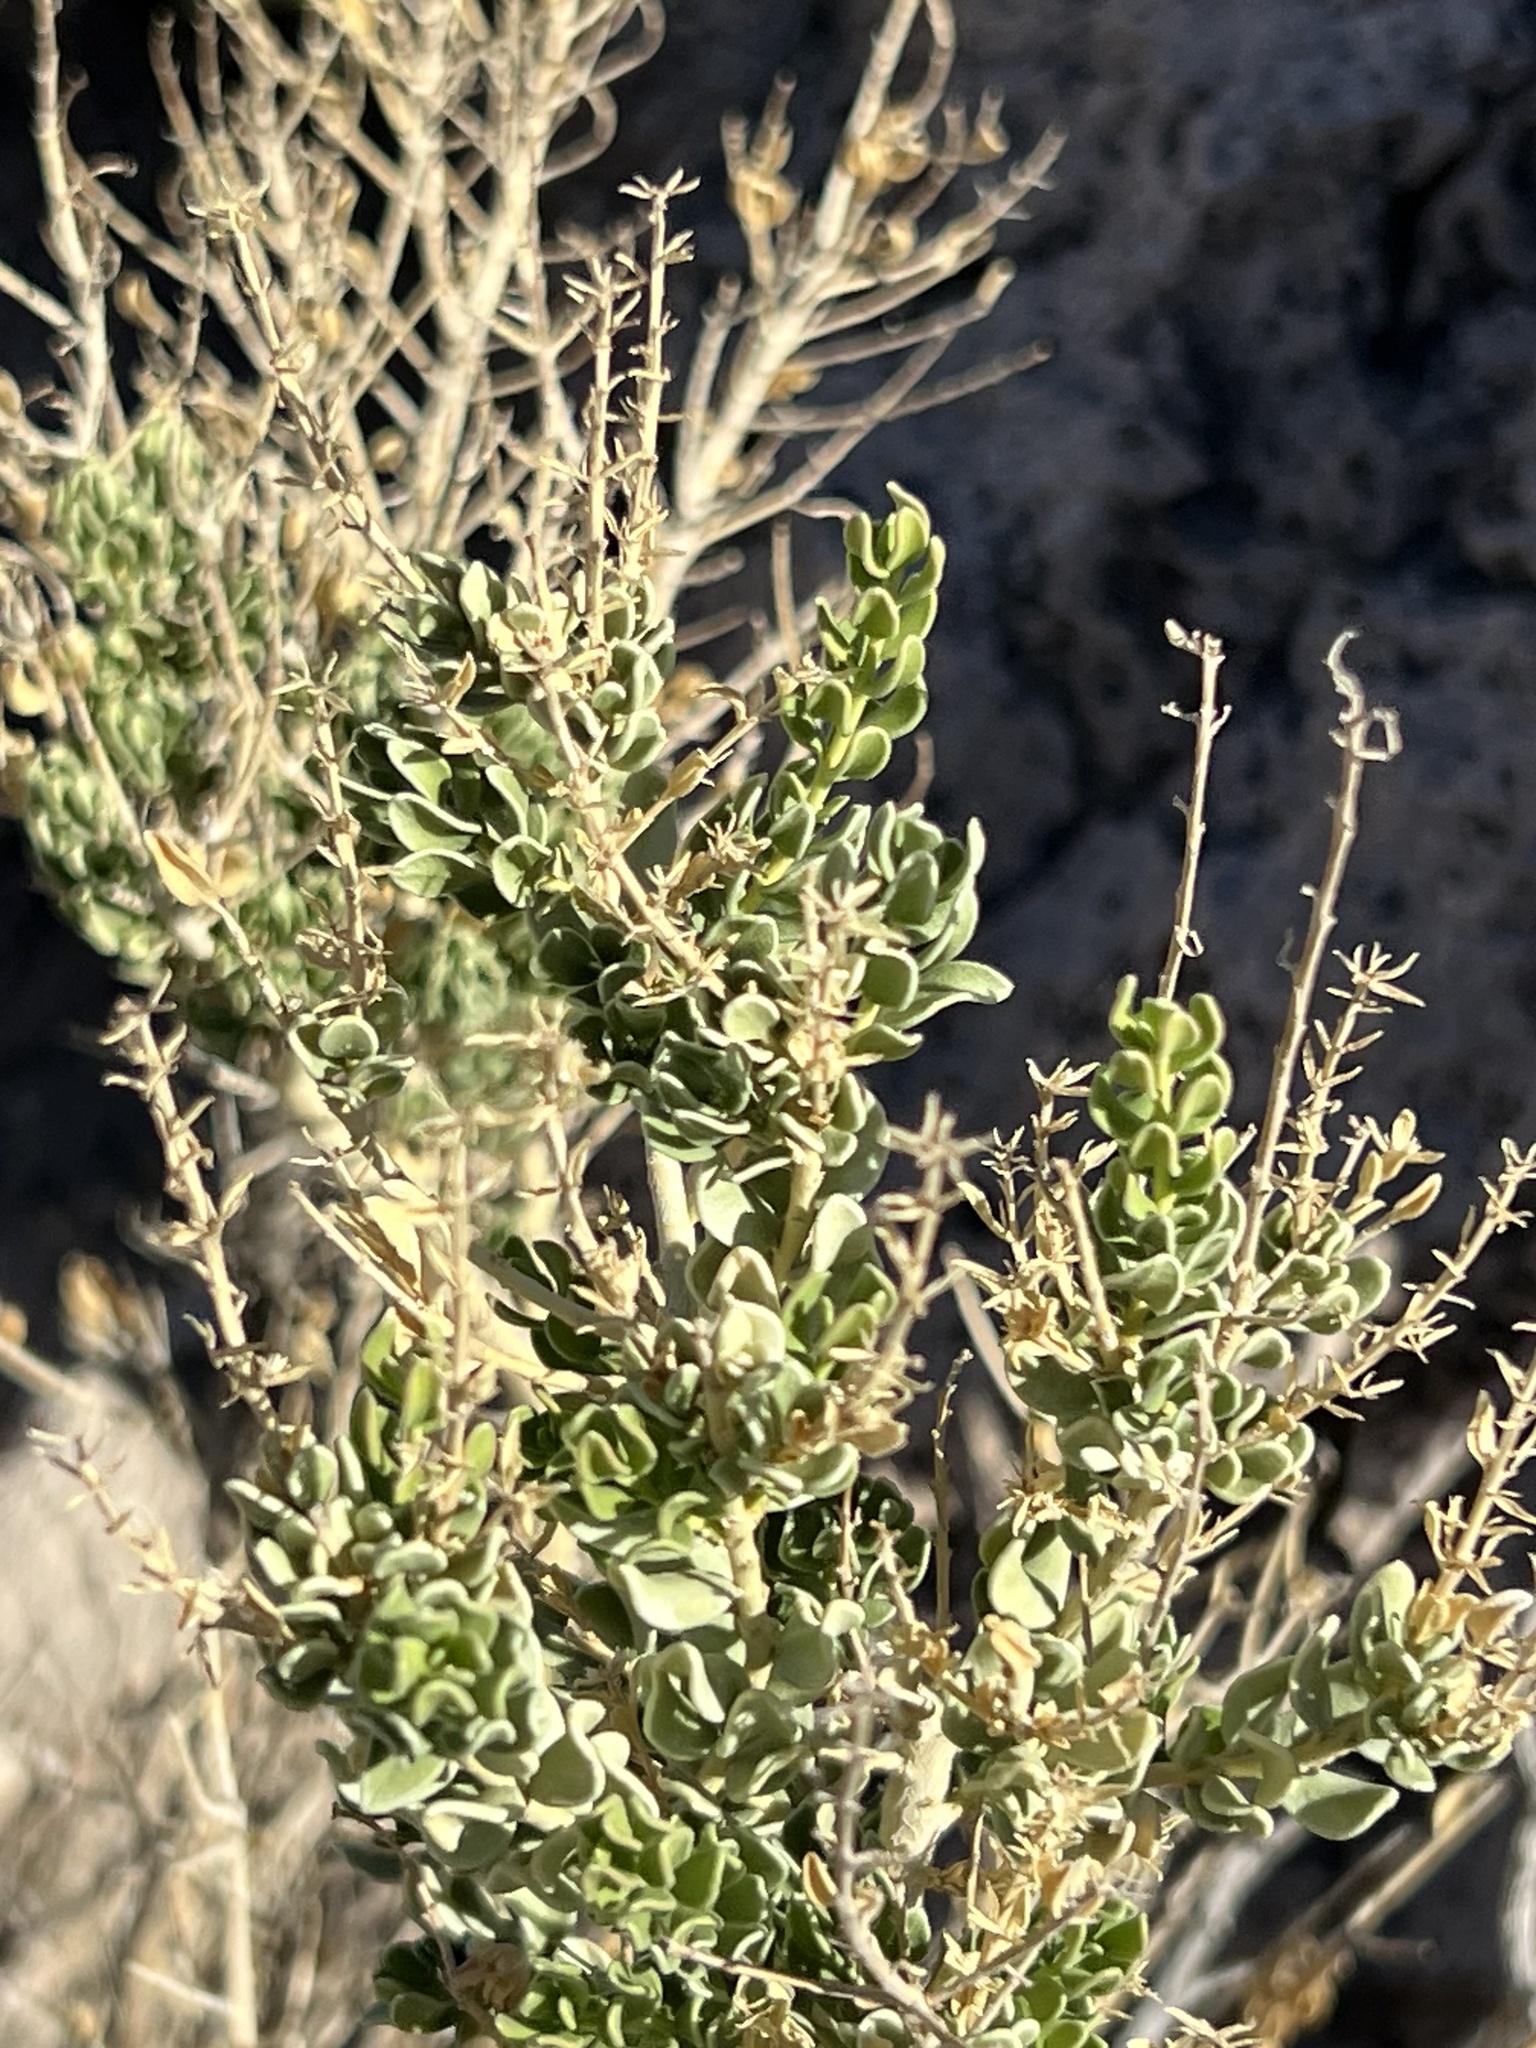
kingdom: Plantae
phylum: Tracheophyta
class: Magnoliopsida
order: Celastrales
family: Celastraceae
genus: Mortonia
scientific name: Mortonia utahensis
